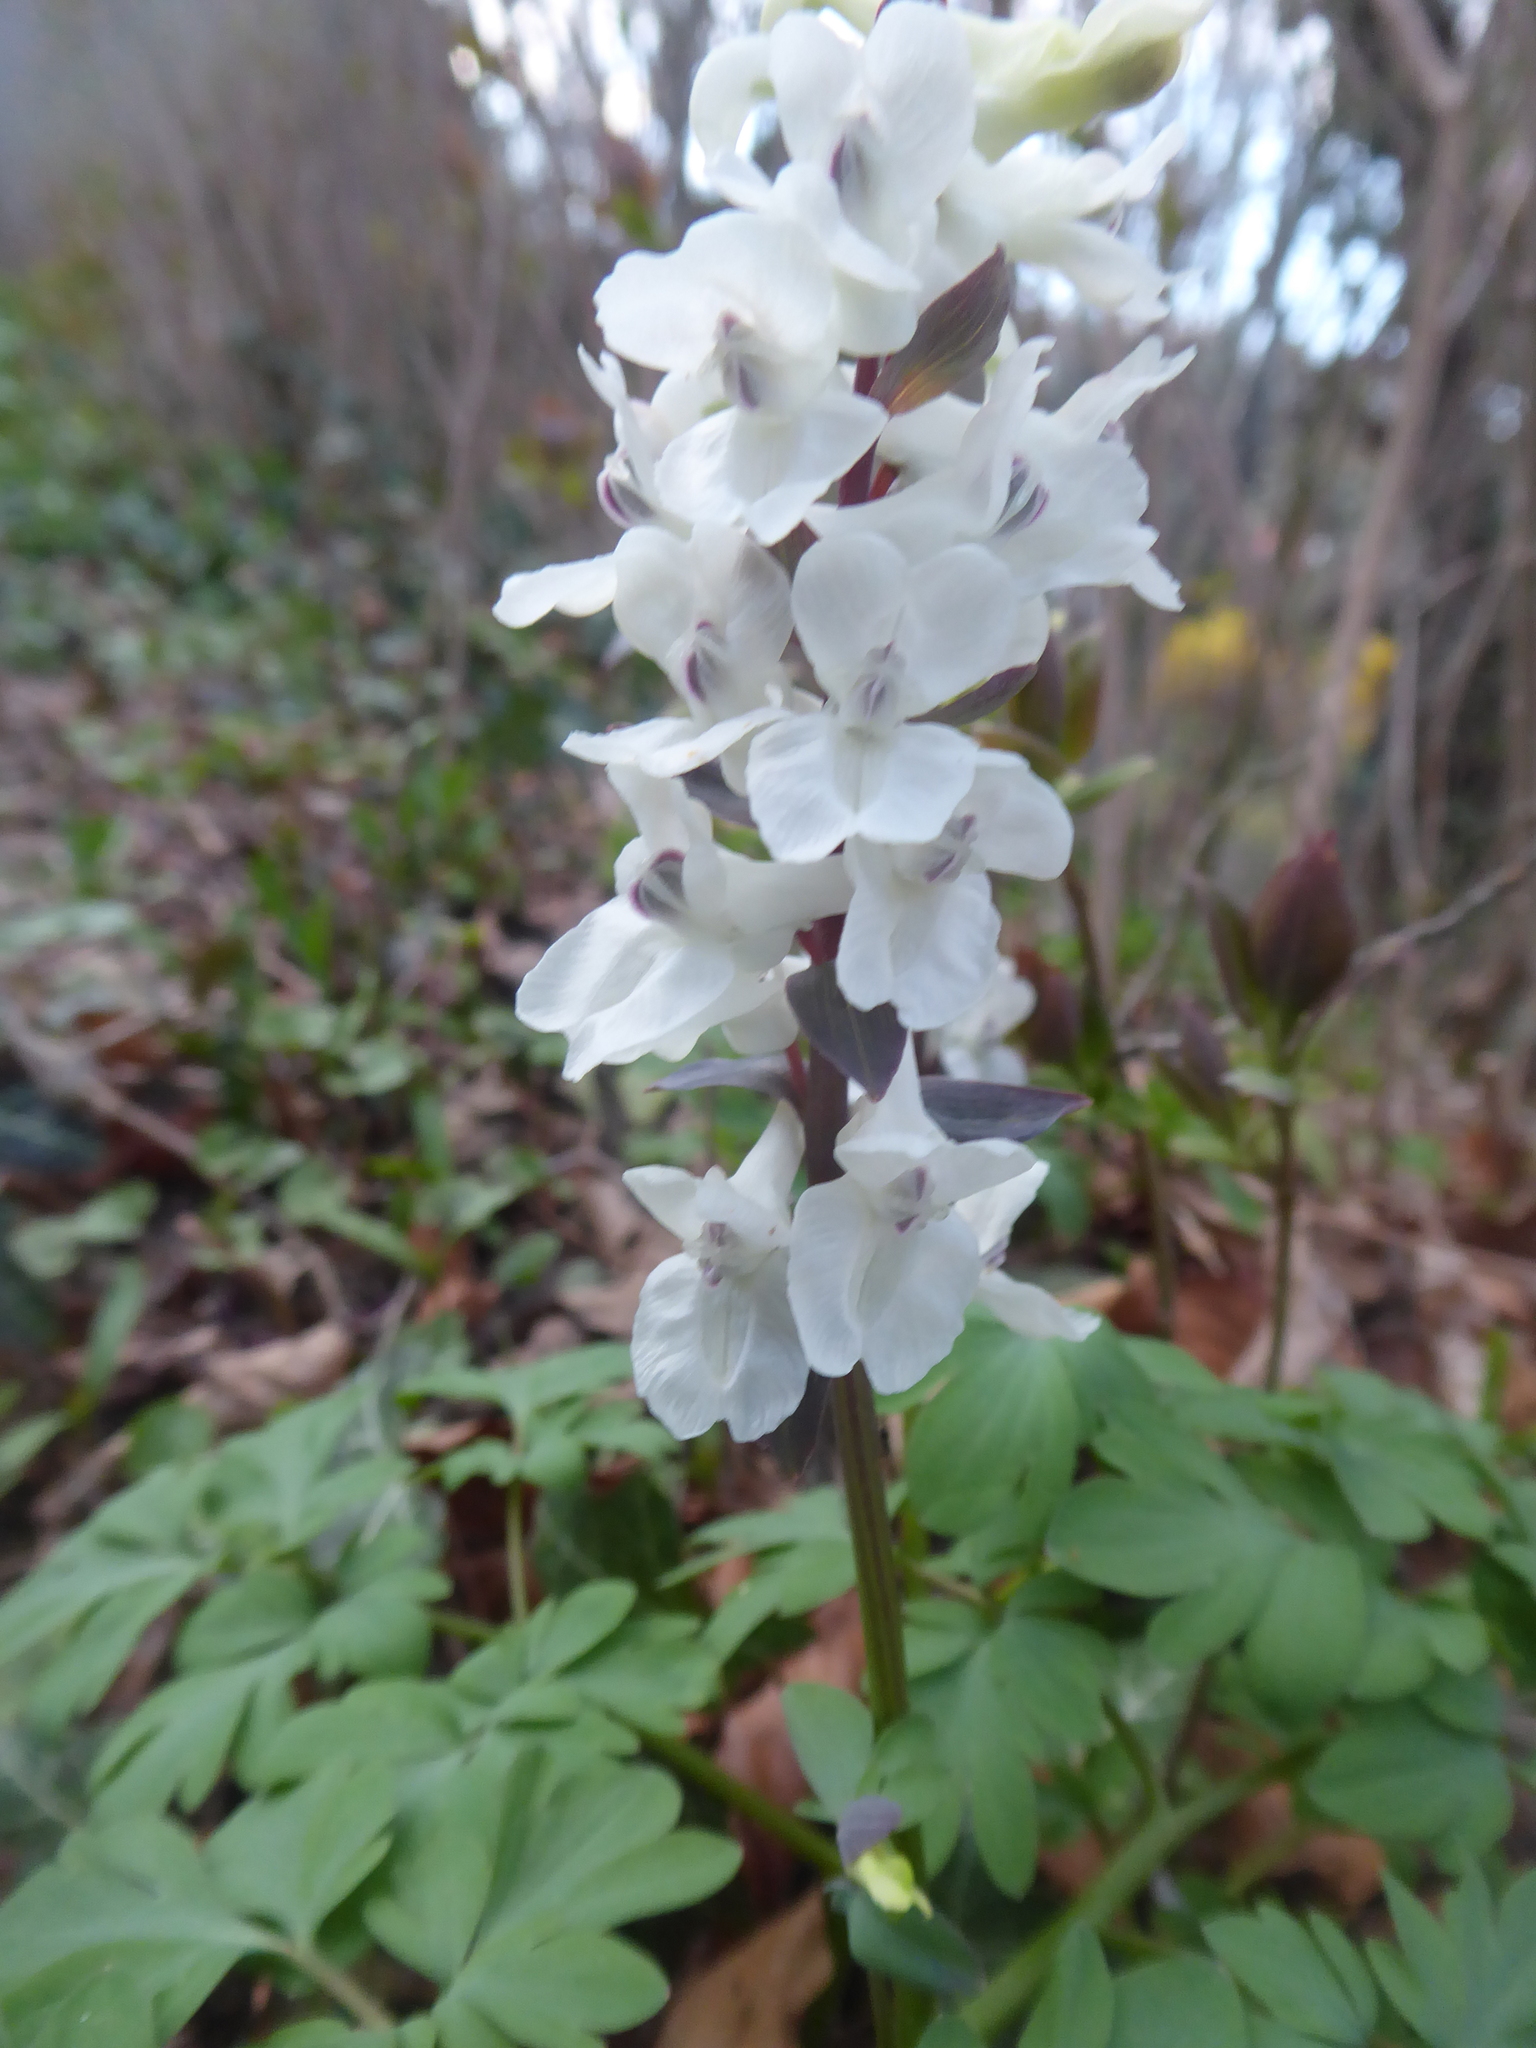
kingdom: Plantae
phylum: Tracheophyta
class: Magnoliopsida
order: Ranunculales
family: Papaveraceae
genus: Corydalis
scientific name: Corydalis cava
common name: Hollowroot
